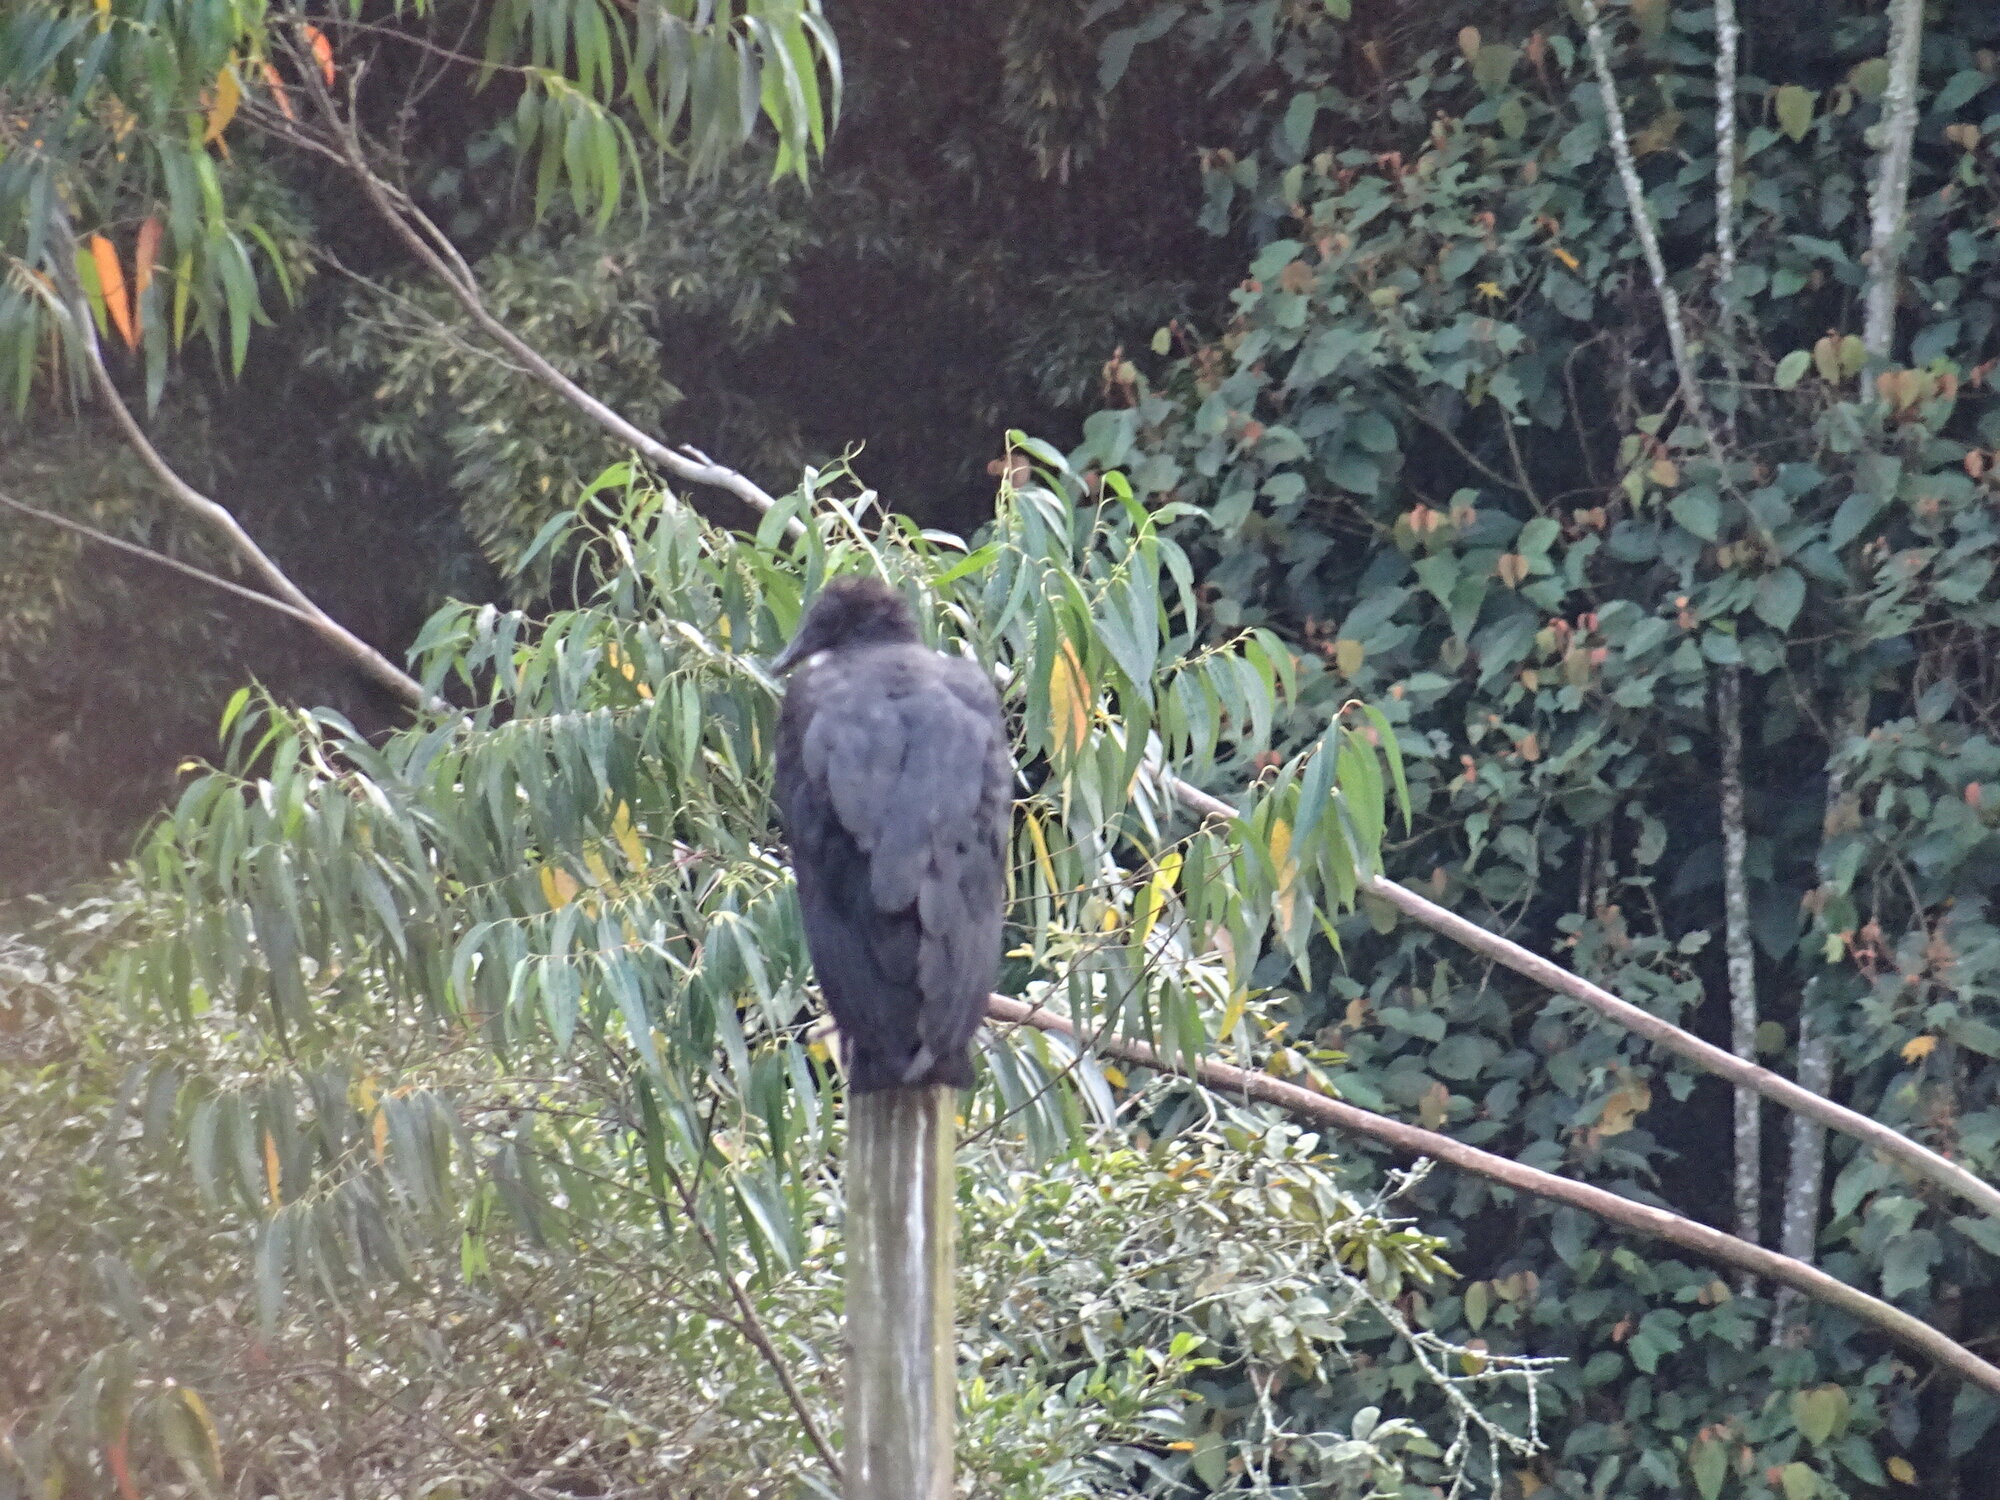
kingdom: Animalia
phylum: Chordata
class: Aves
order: Accipitriformes
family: Cathartidae
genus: Coragyps
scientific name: Coragyps atratus
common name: Black vulture
